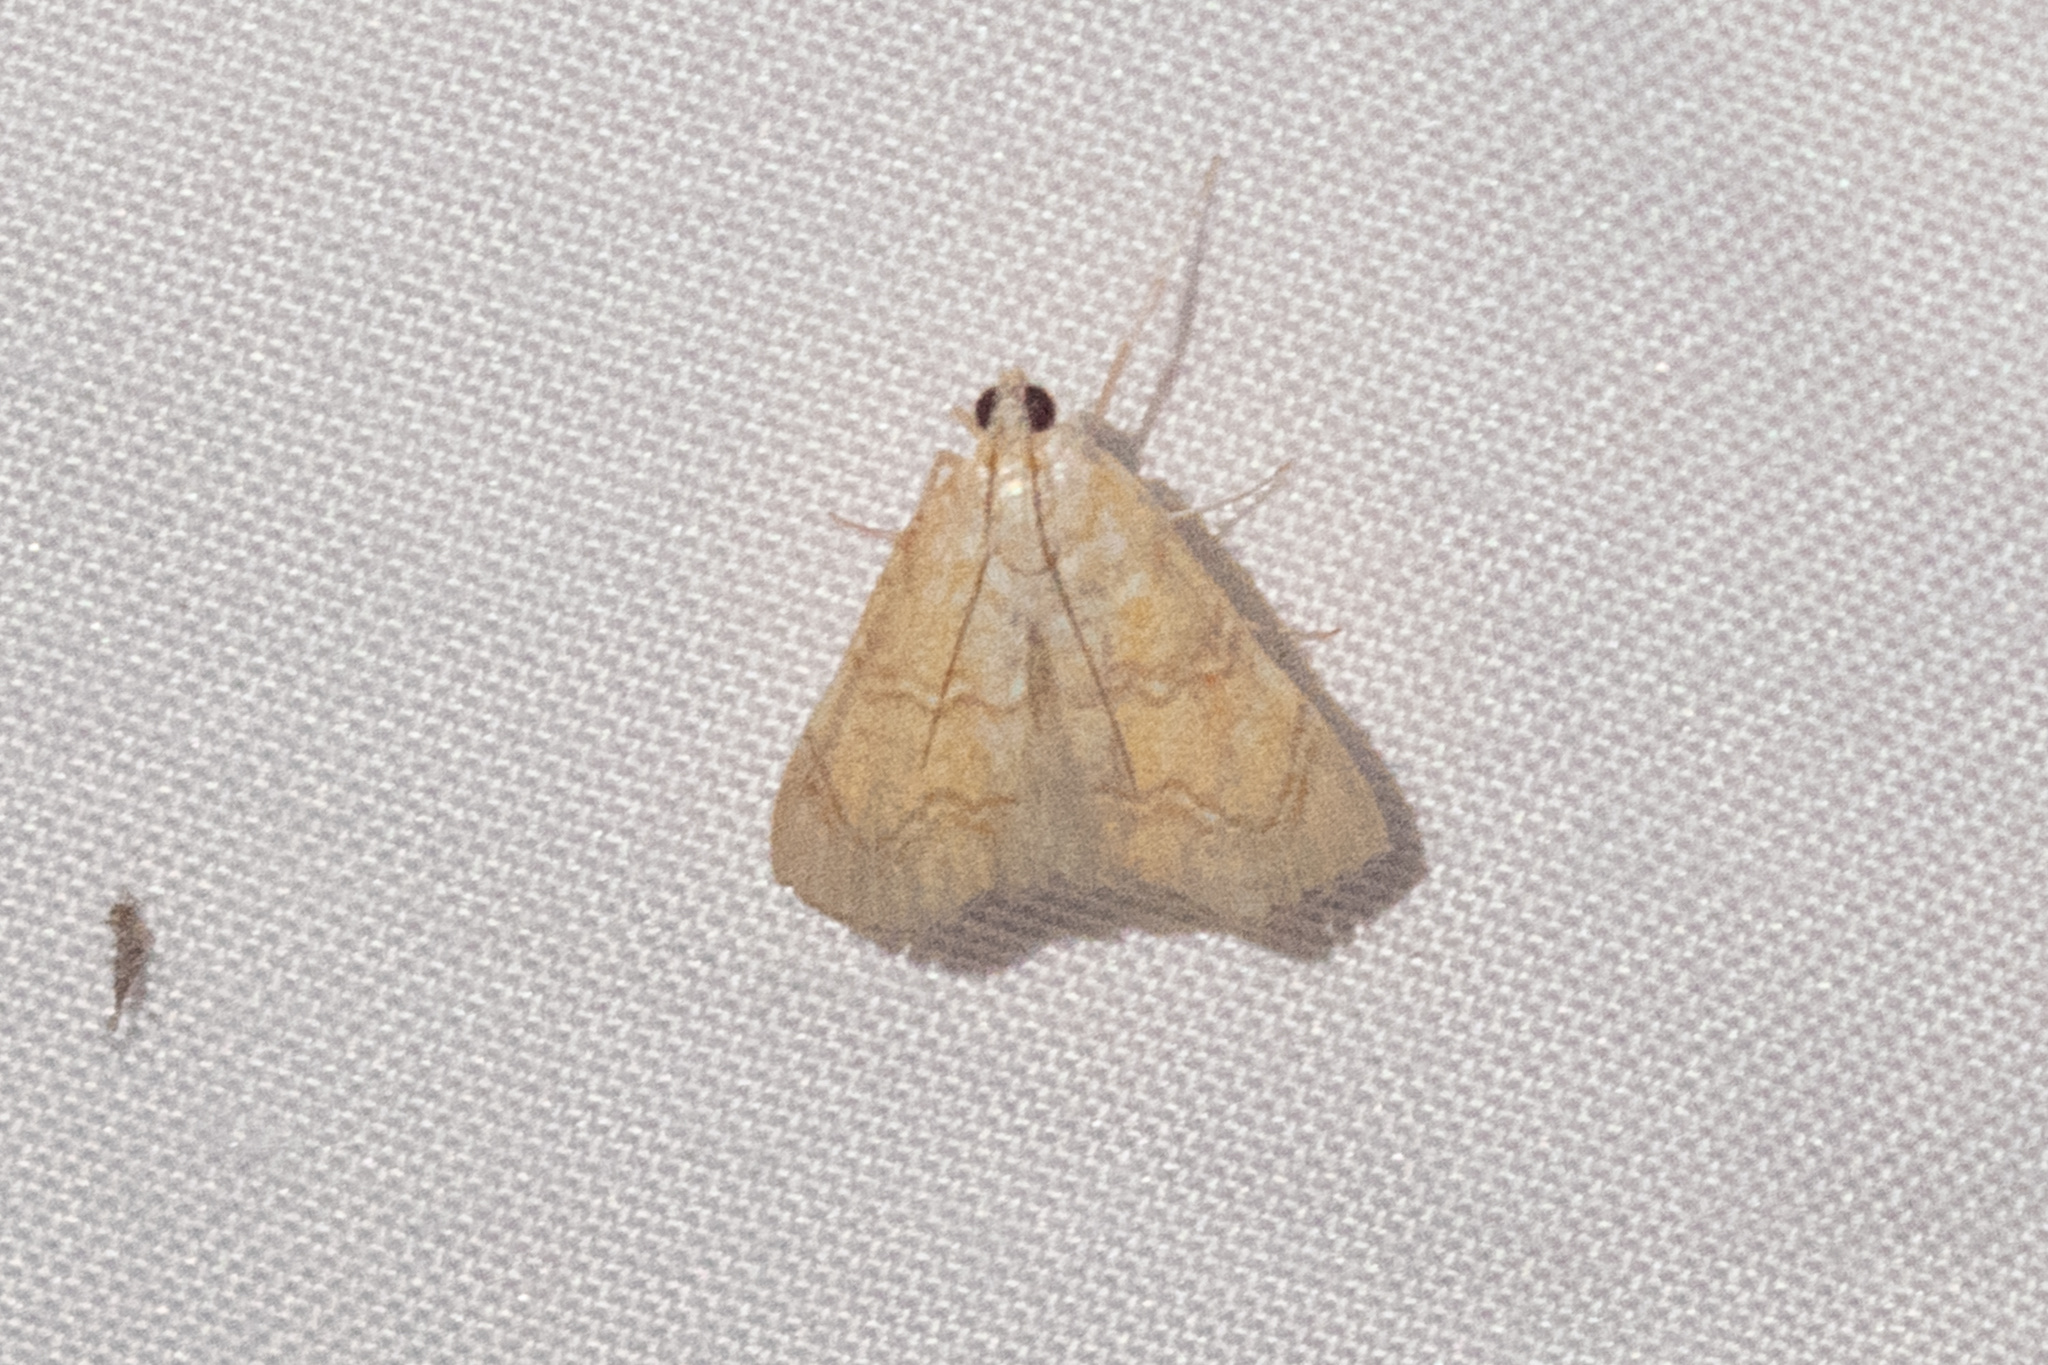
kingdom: Animalia
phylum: Arthropoda
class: Insecta
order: Lepidoptera
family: Crambidae
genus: Glaphyria
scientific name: Glaphyria sesquistrialis
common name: White-roped glaphyria
